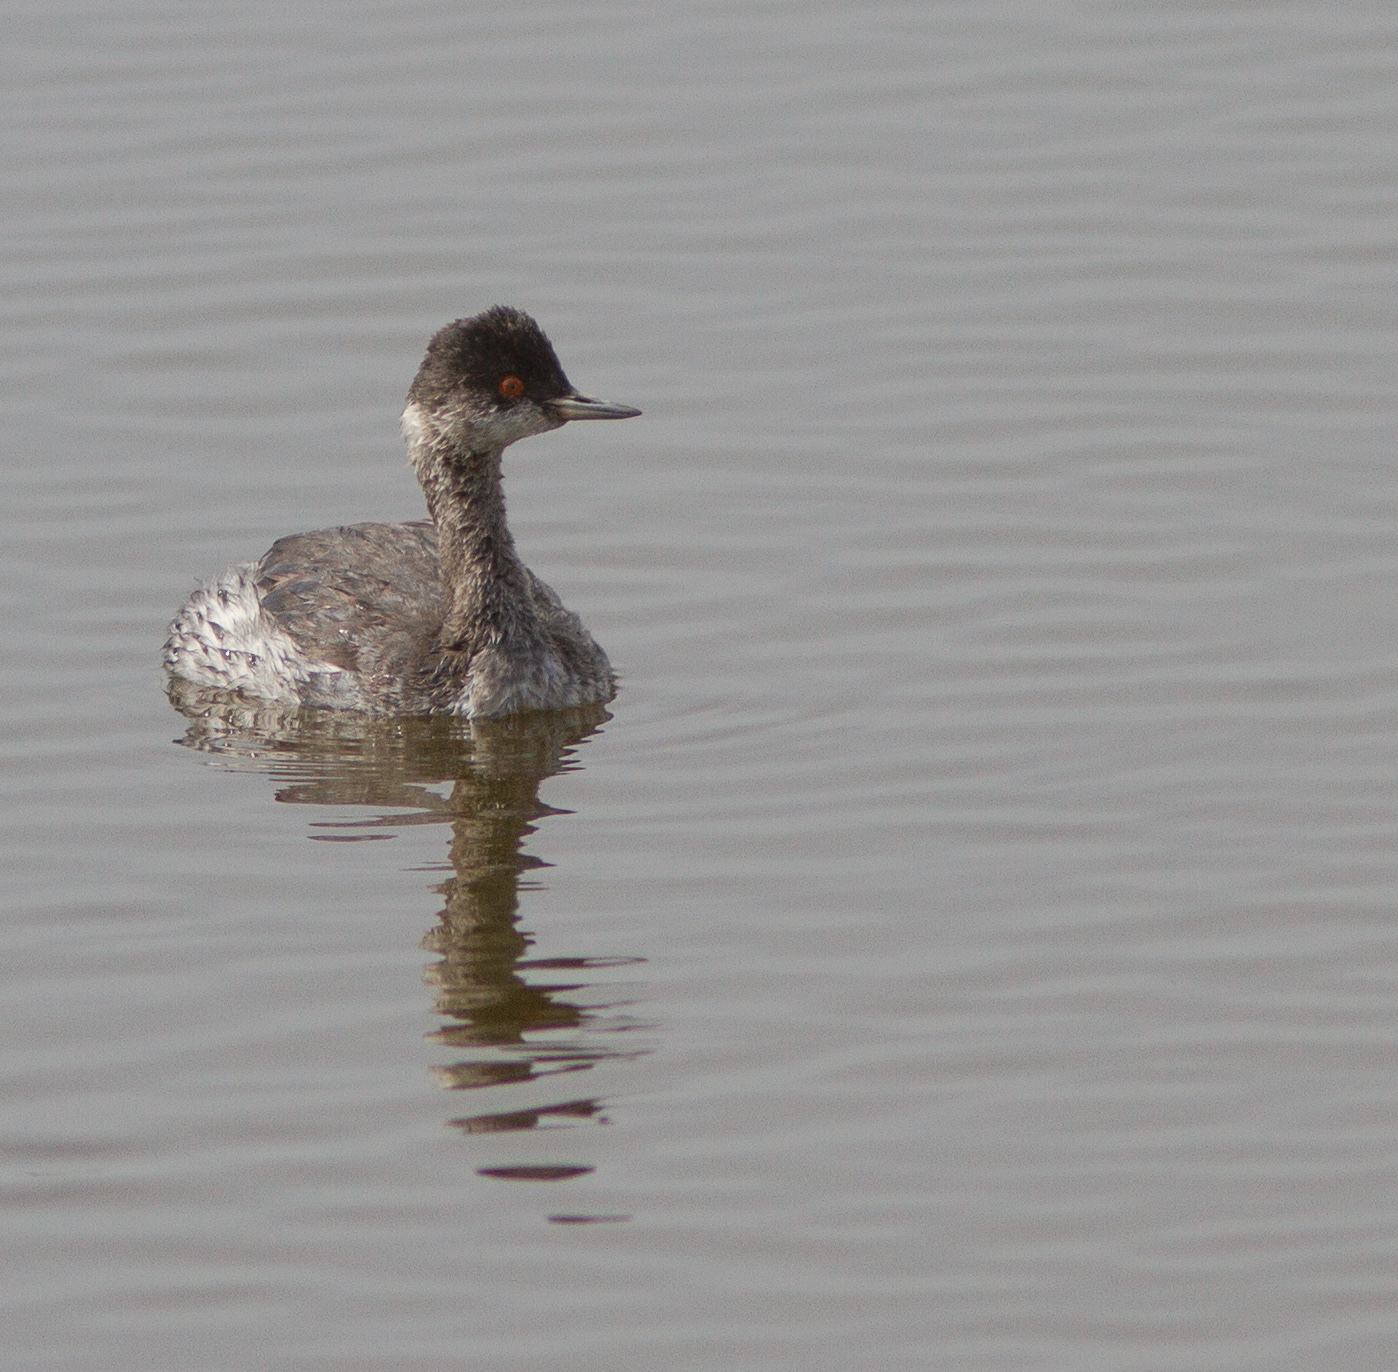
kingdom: Animalia
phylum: Chordata
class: Aves
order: Podicipediformes
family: Podicipedidae
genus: Podiceps
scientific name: Podiceps nigricollis
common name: Black-necked grebe
